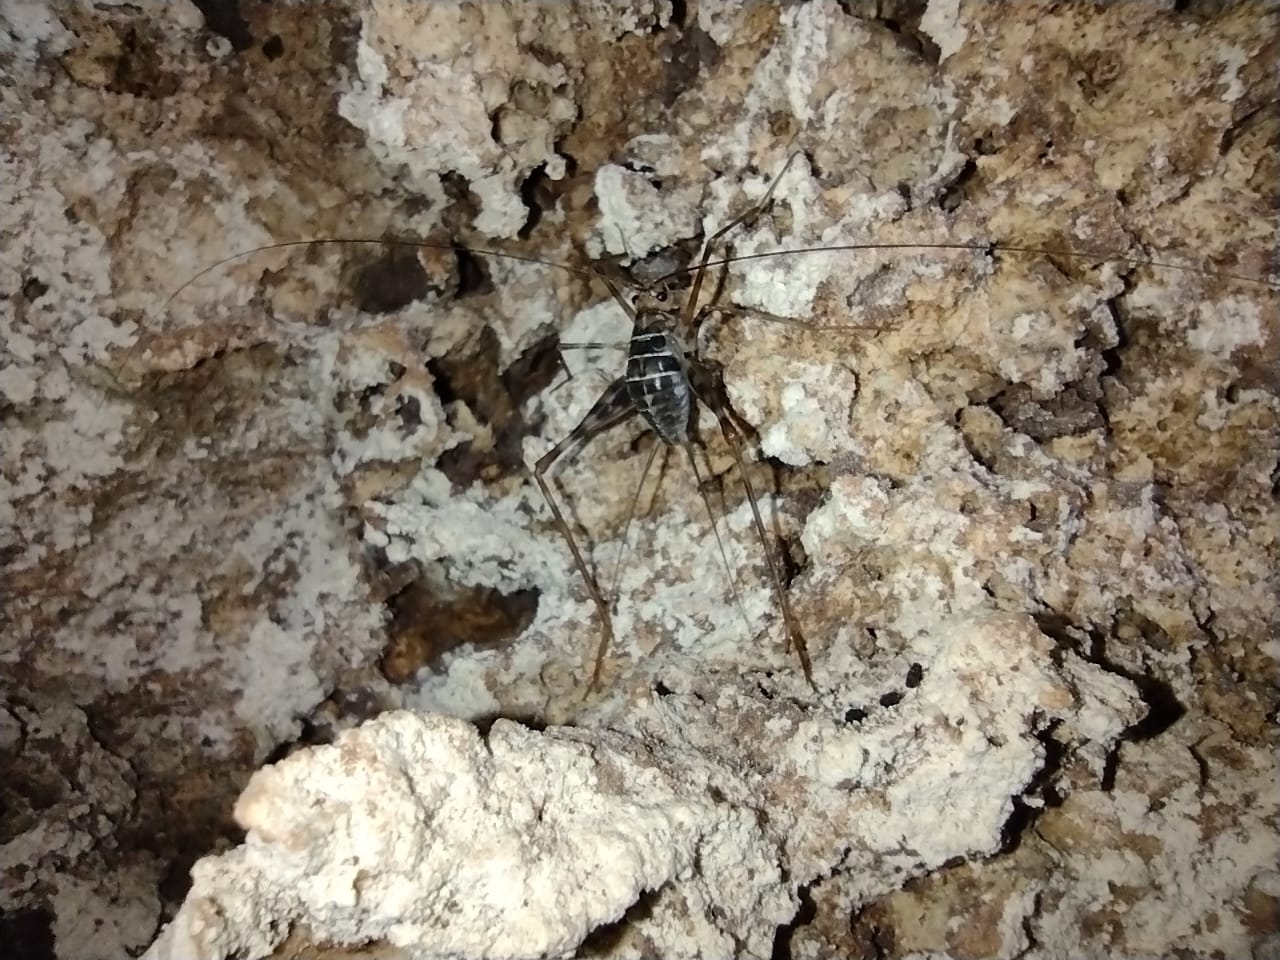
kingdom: Animalia
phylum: Arthropoda
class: Insecta
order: Orthoptera
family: Phalangopsidae
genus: Mayagryllus
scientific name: Mayagryllus yucatanus
